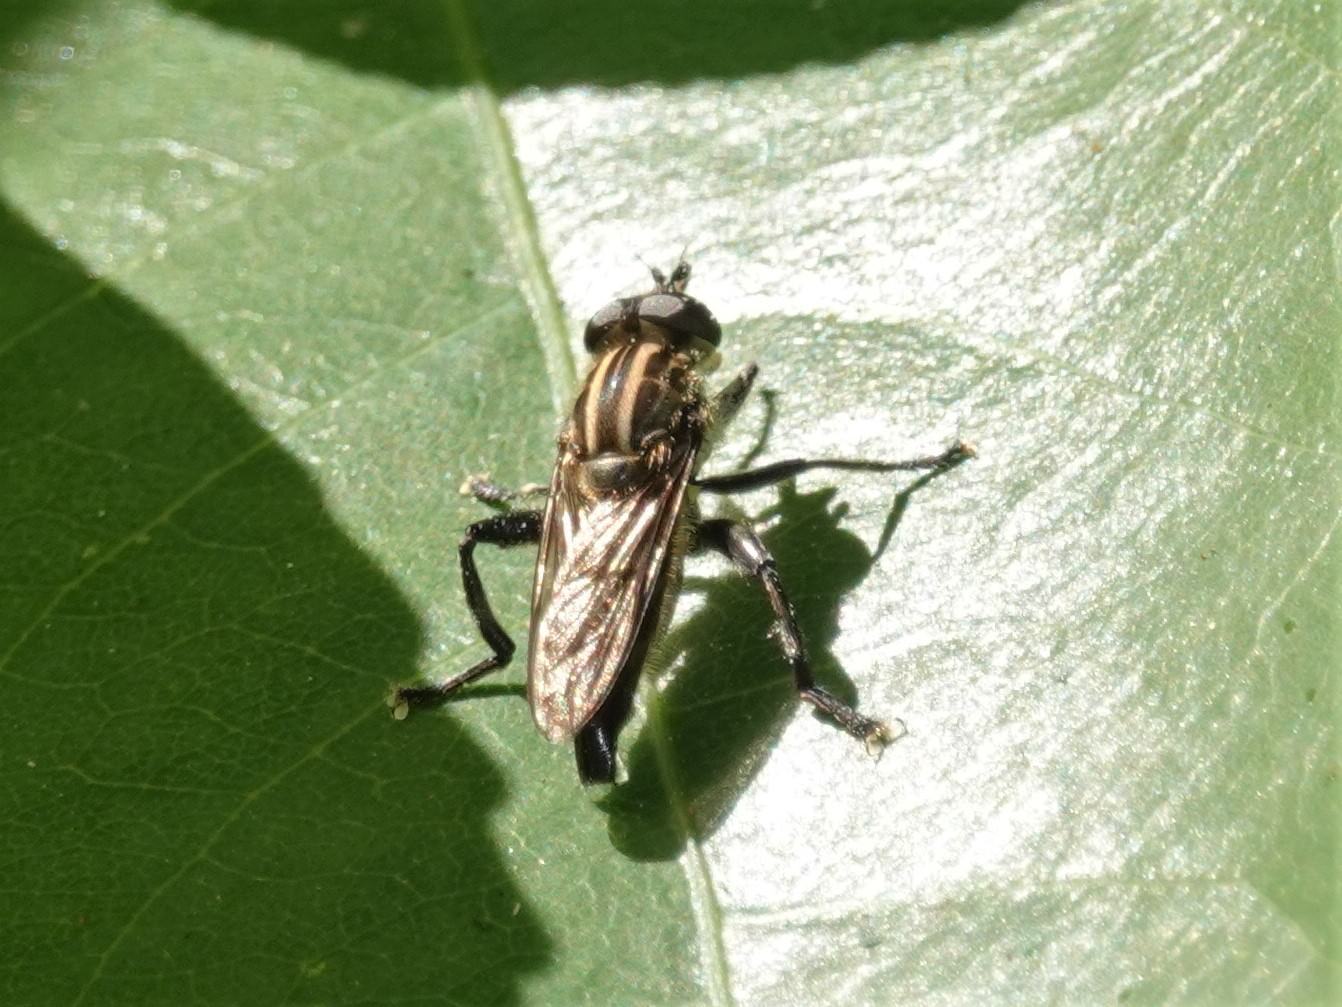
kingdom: Animalia
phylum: Arthropoda
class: Insecta
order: Diptera
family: Syrphidae
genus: Orthoprosopa
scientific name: Orthoprosopa bilineata
